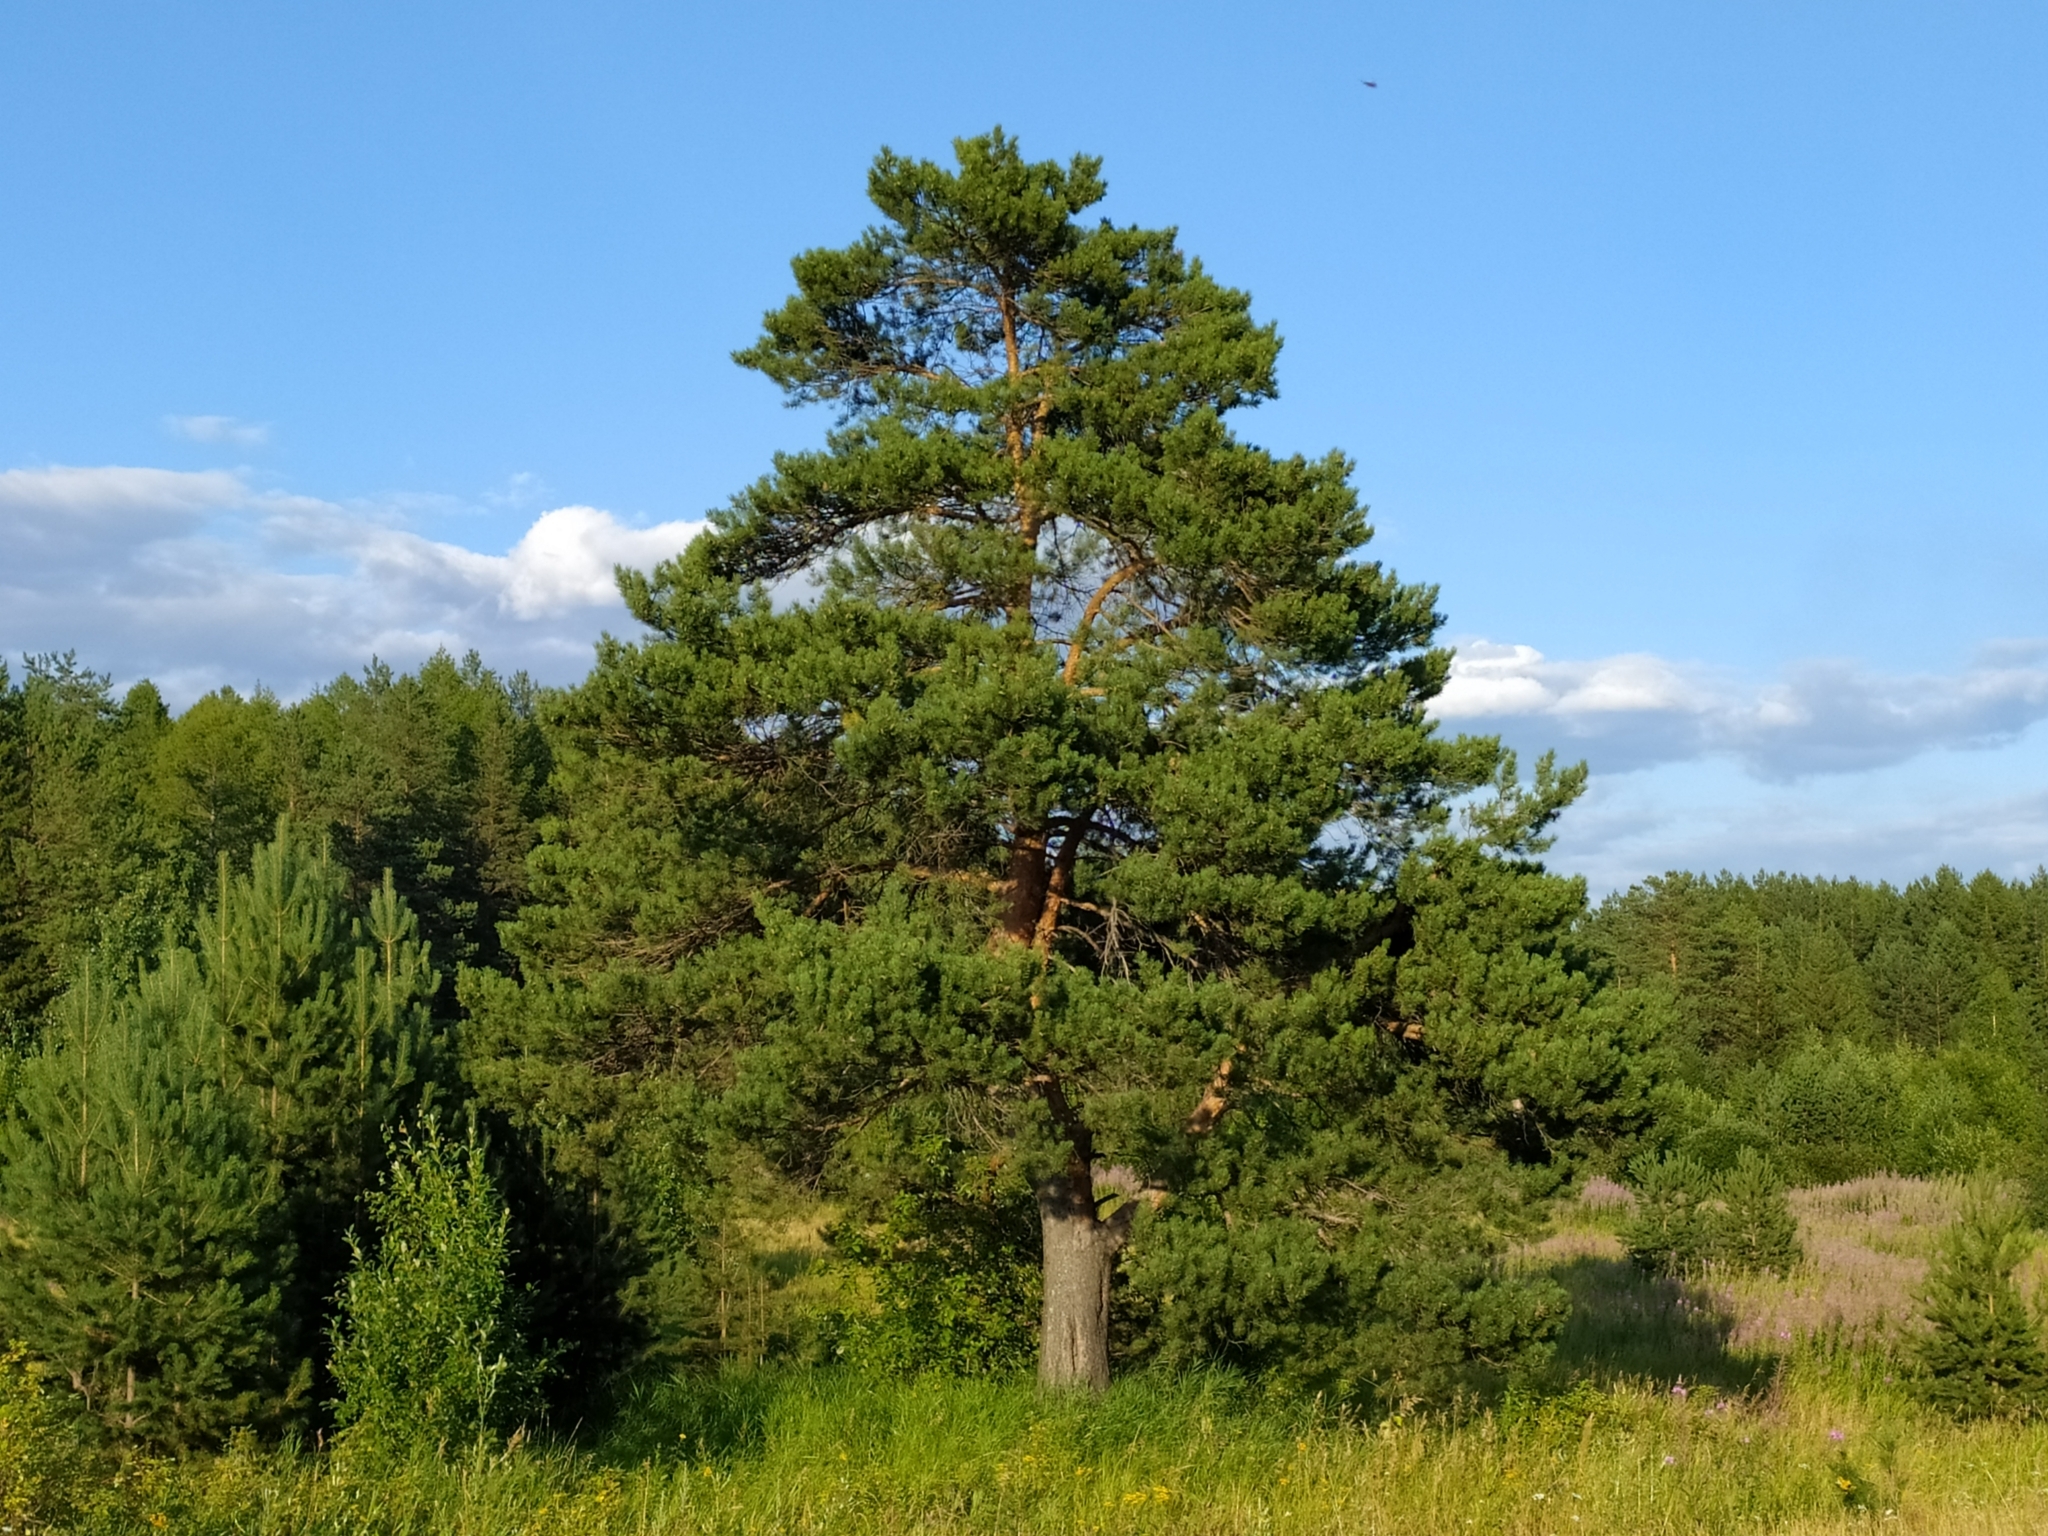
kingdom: Plantae
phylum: Tracheophyta
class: Pinopsida
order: Pinales
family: Pinaceae
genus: Pinus
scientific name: Pinus sylvestris
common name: Scots pine
